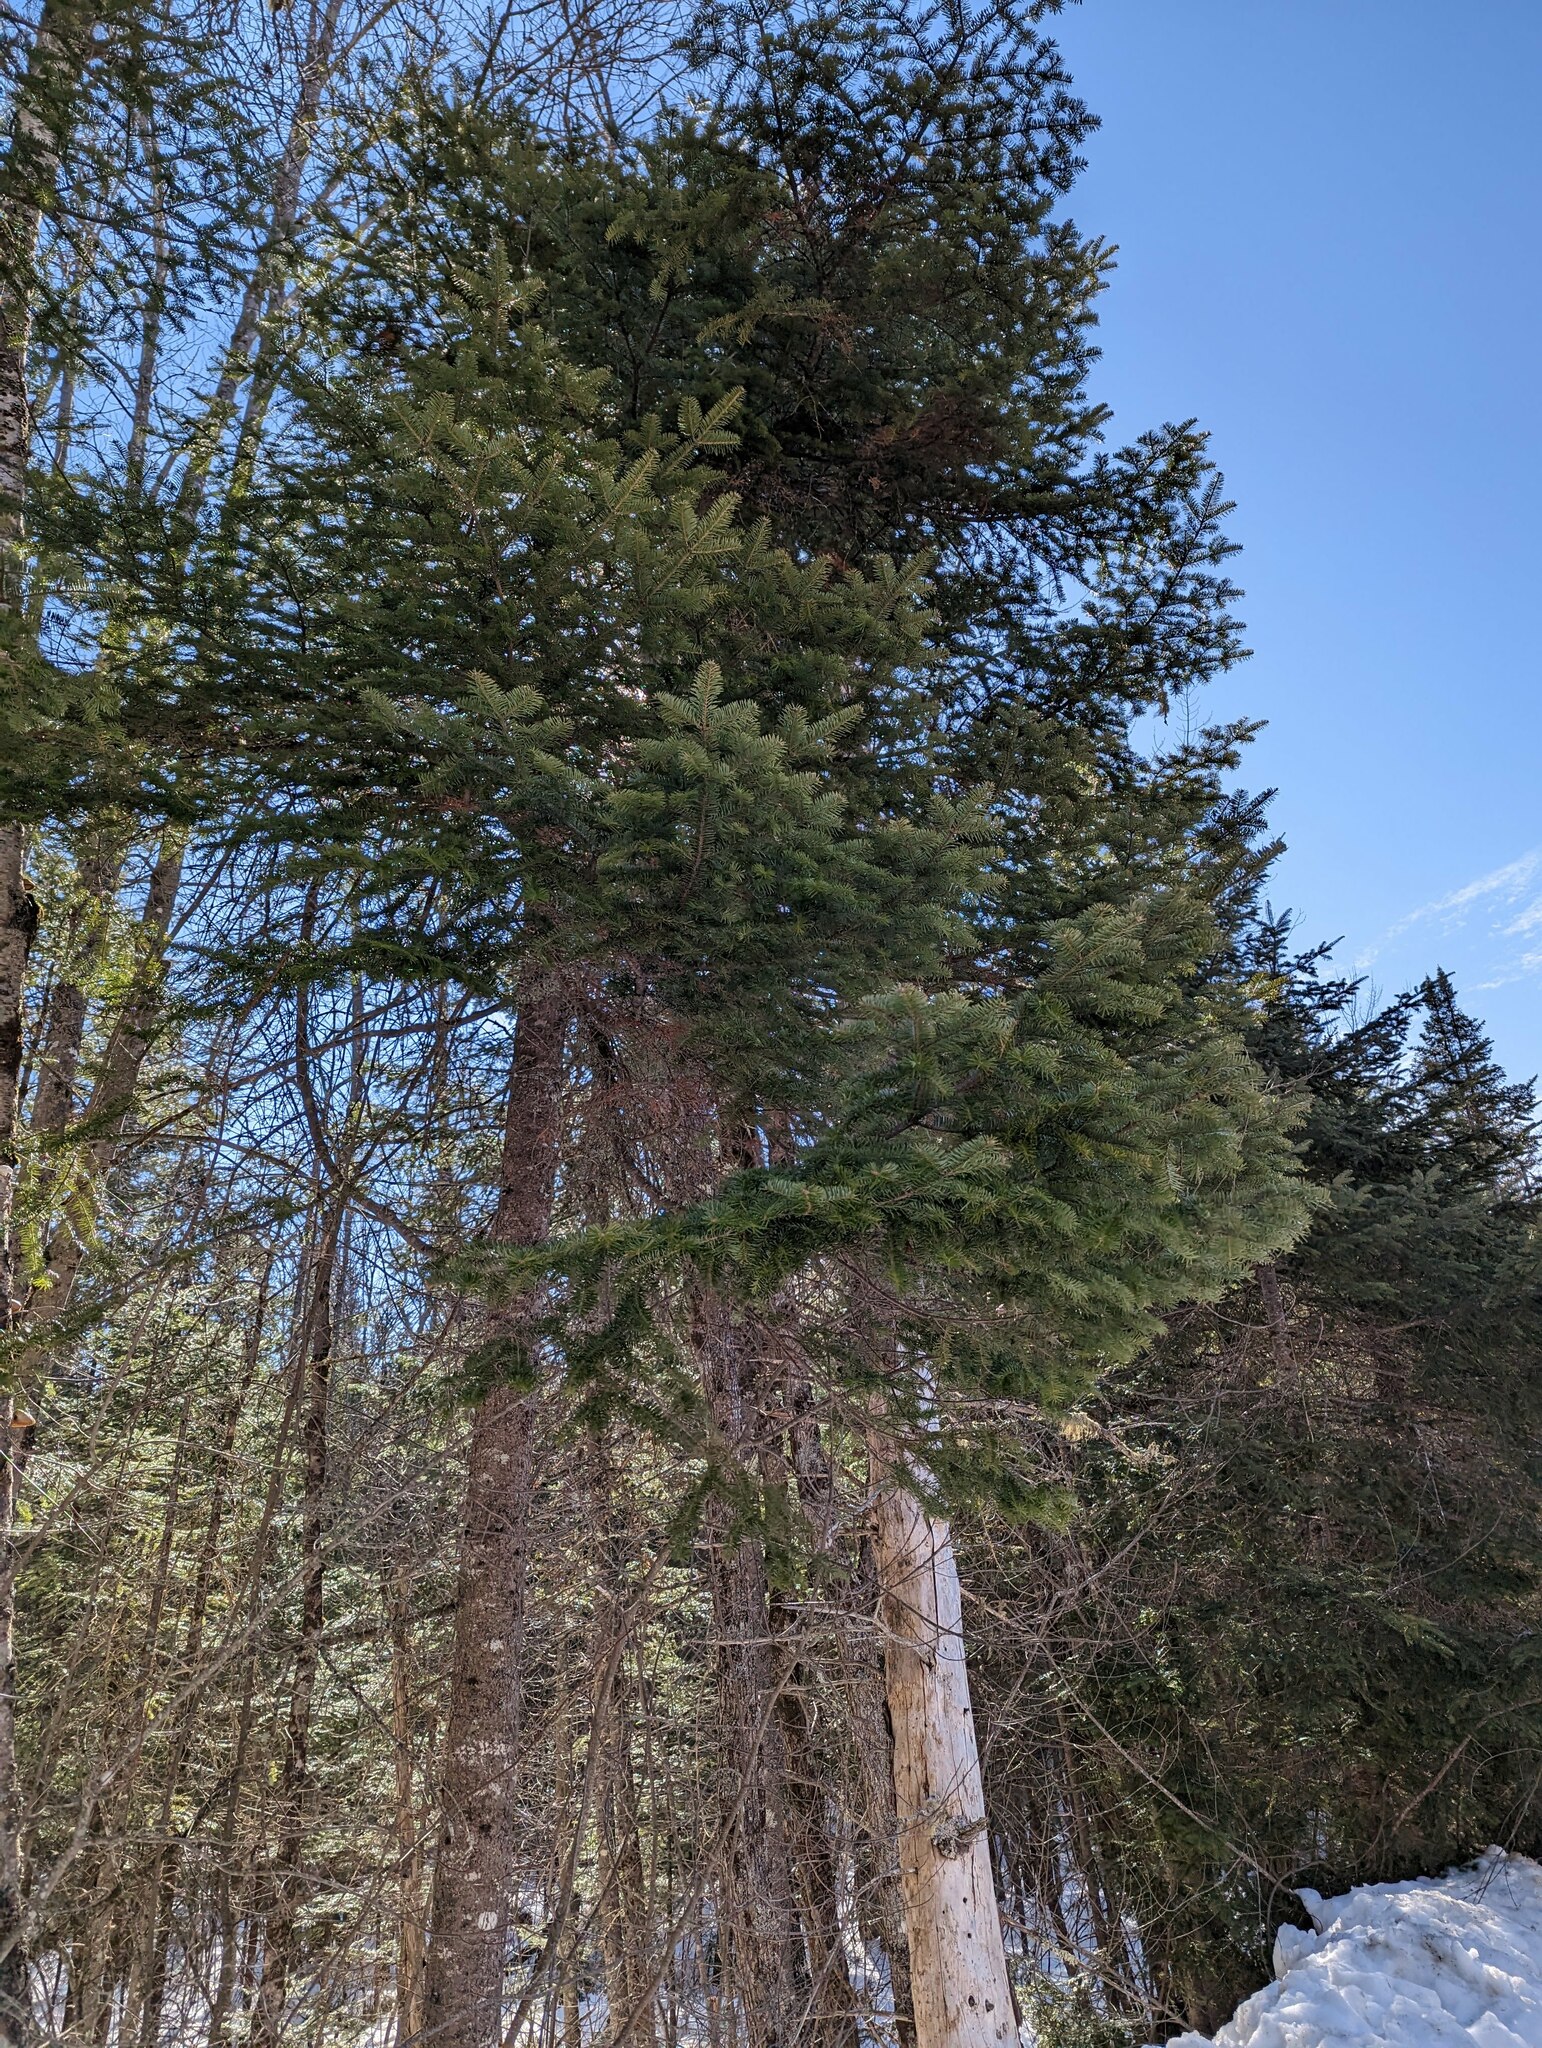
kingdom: Plantae
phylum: Tracheophyta
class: Pinopsida
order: Pinales
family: Pinaceae
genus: Abies
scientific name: Abies balsamea
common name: Balsam fir
